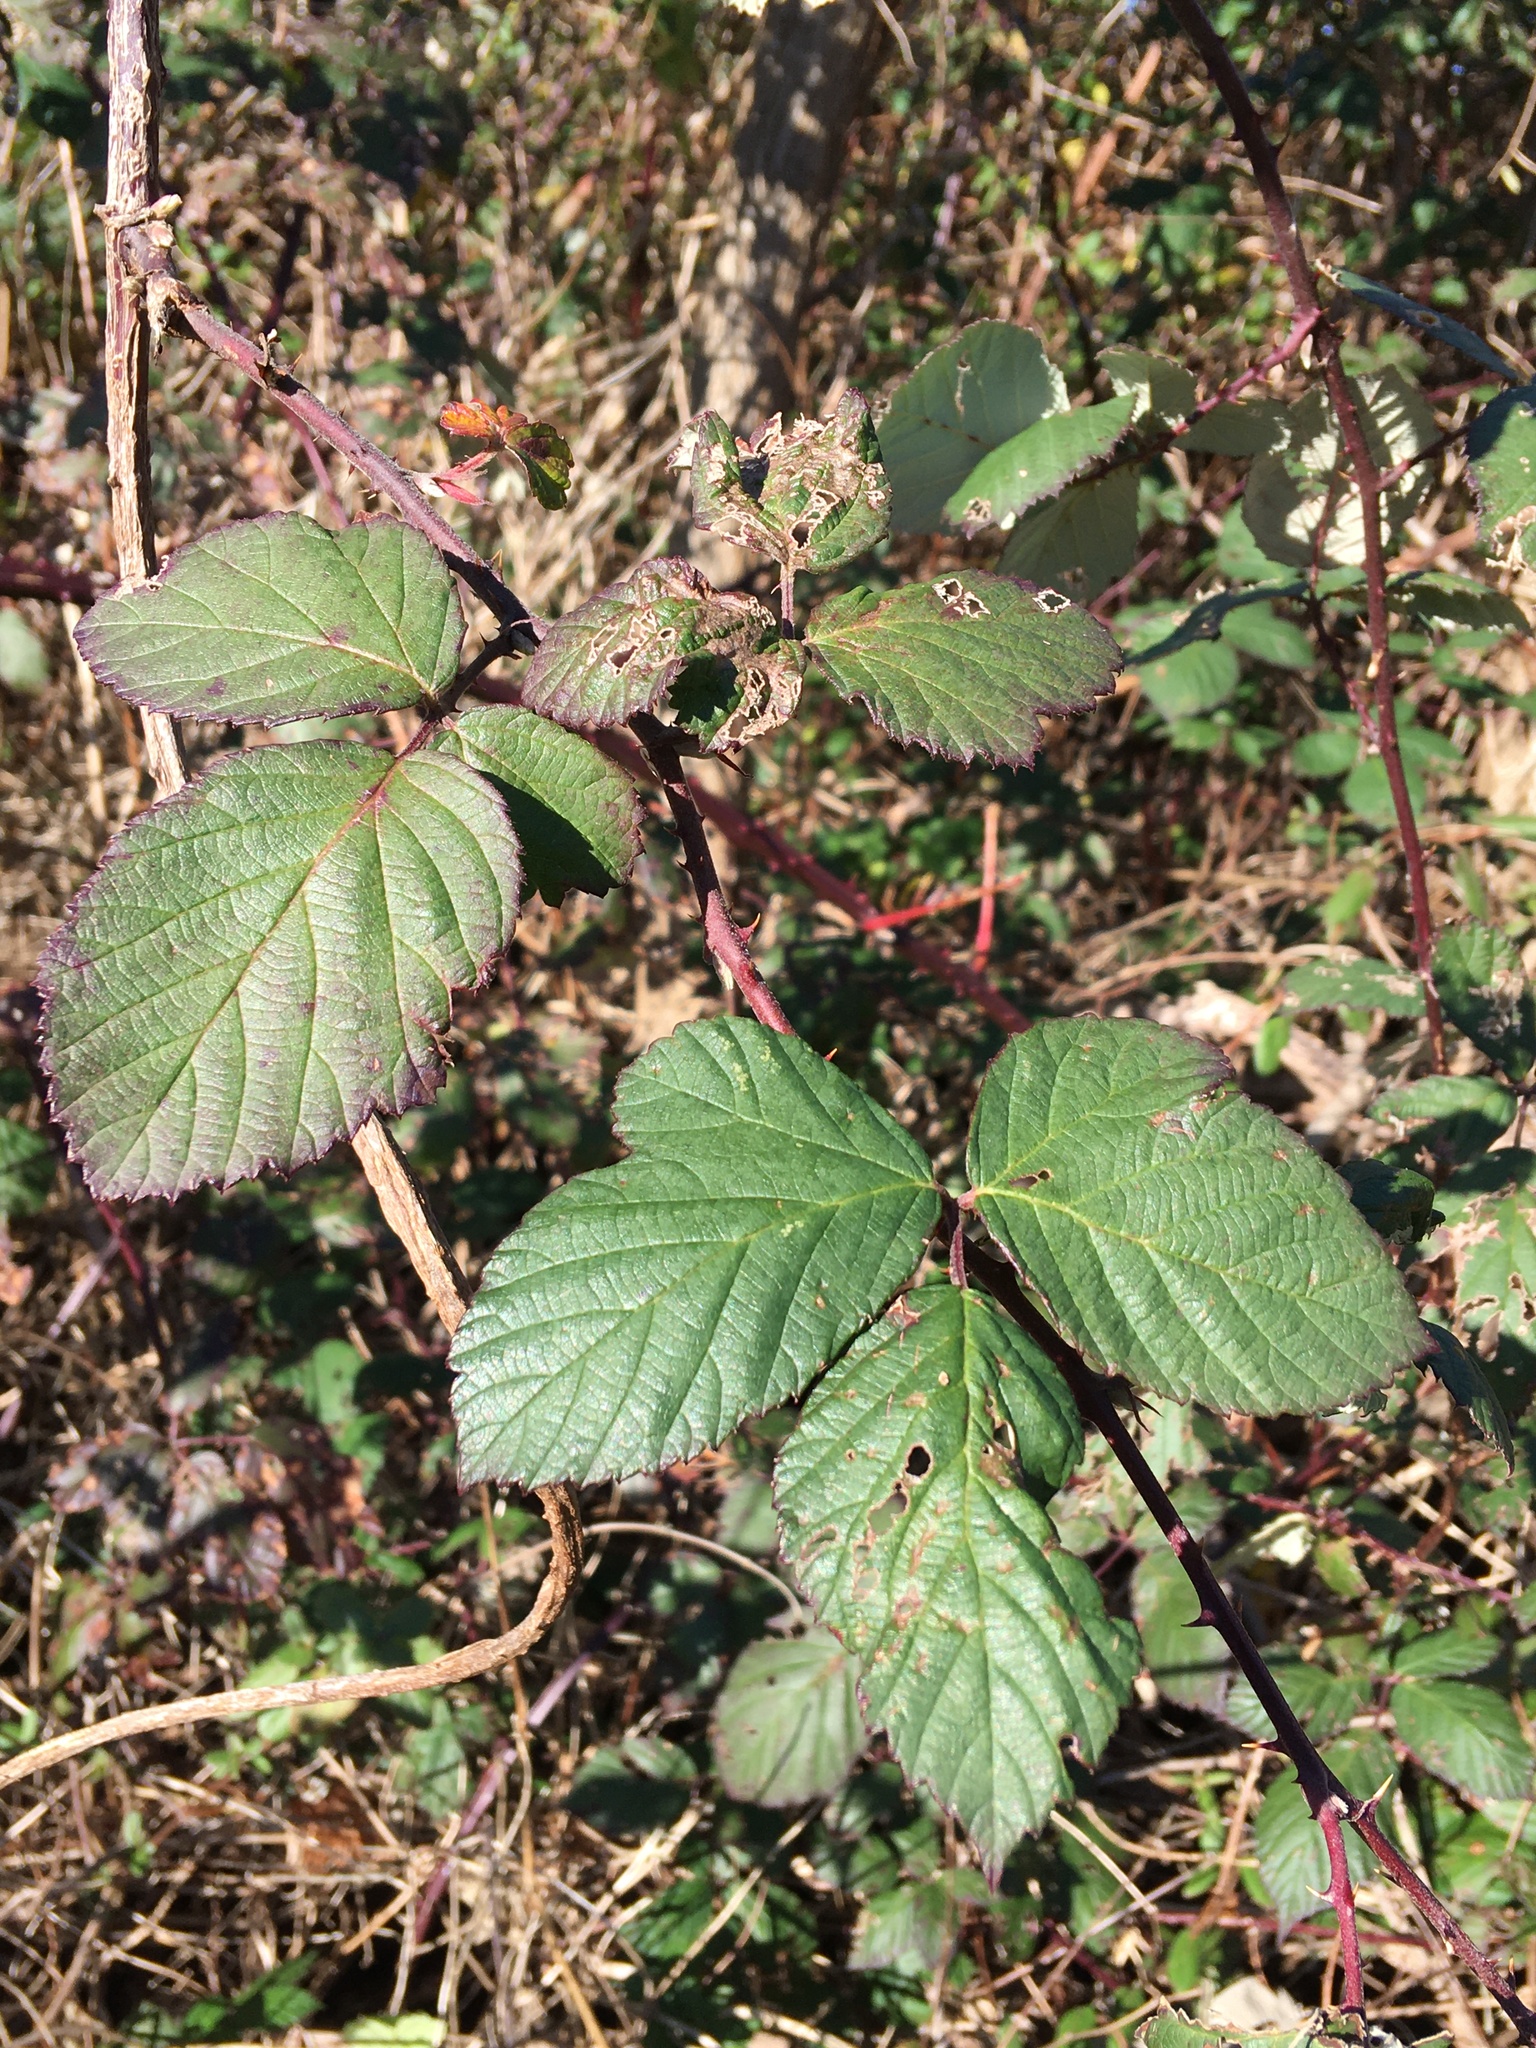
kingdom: Plantae
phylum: Tracheophyta
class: Magnoliopsida
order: Rosales
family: Rosaceae
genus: Rubus
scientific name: Rubus bifrons
